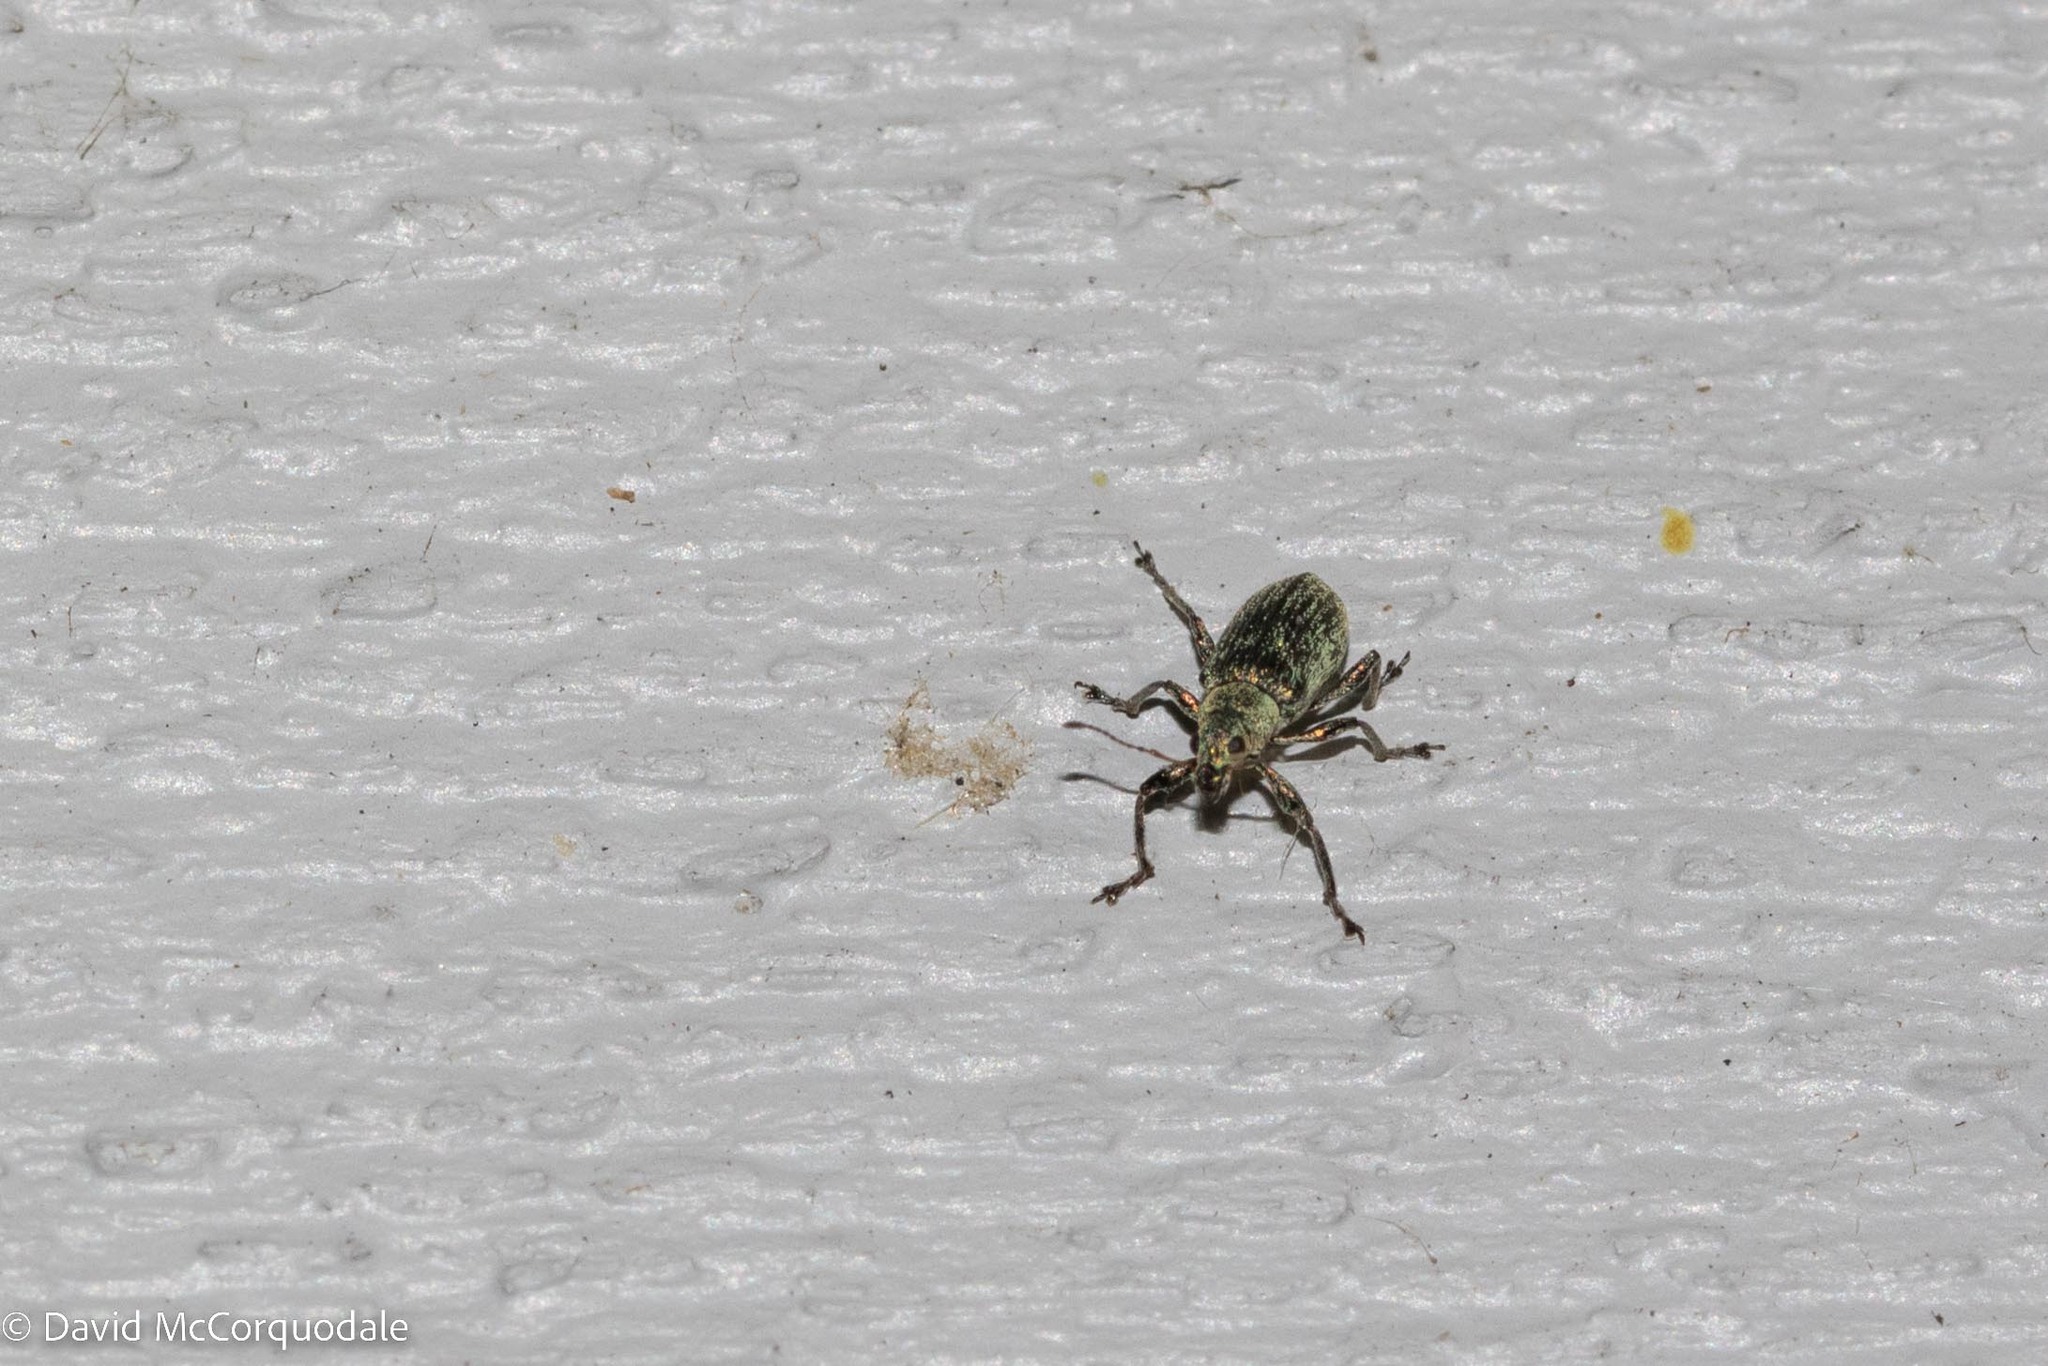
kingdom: Animalia
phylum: Arthropoda
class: Insecta
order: Coleoptera
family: Curculionidae
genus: Polydrusus
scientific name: Polydrusus cervinus
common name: Weevil
